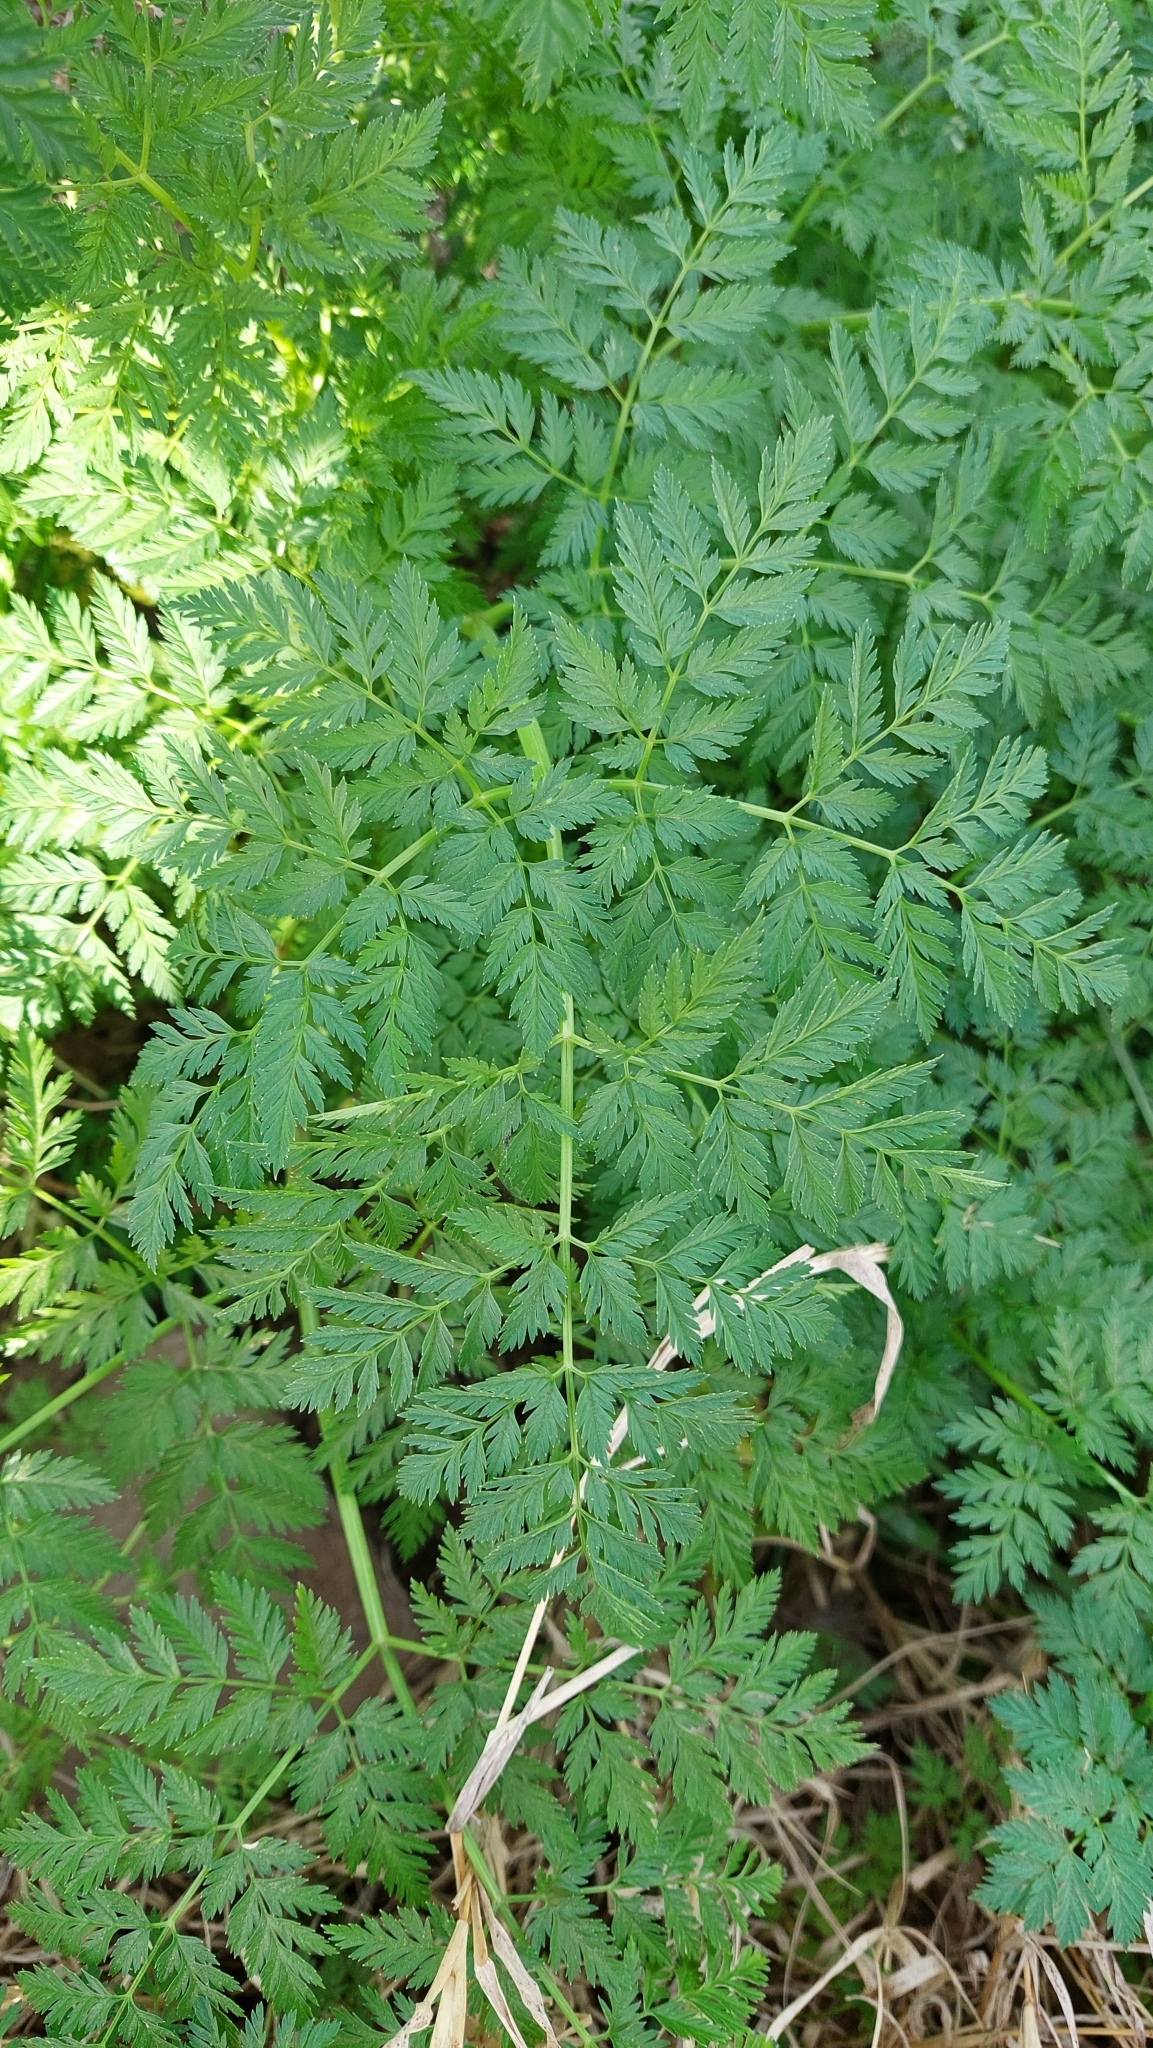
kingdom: Plantae
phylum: Tracheophyta
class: Magnoliopsida
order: Apiales
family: Apiaceae
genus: Conium
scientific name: Conium maculatum
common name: Hemlock
